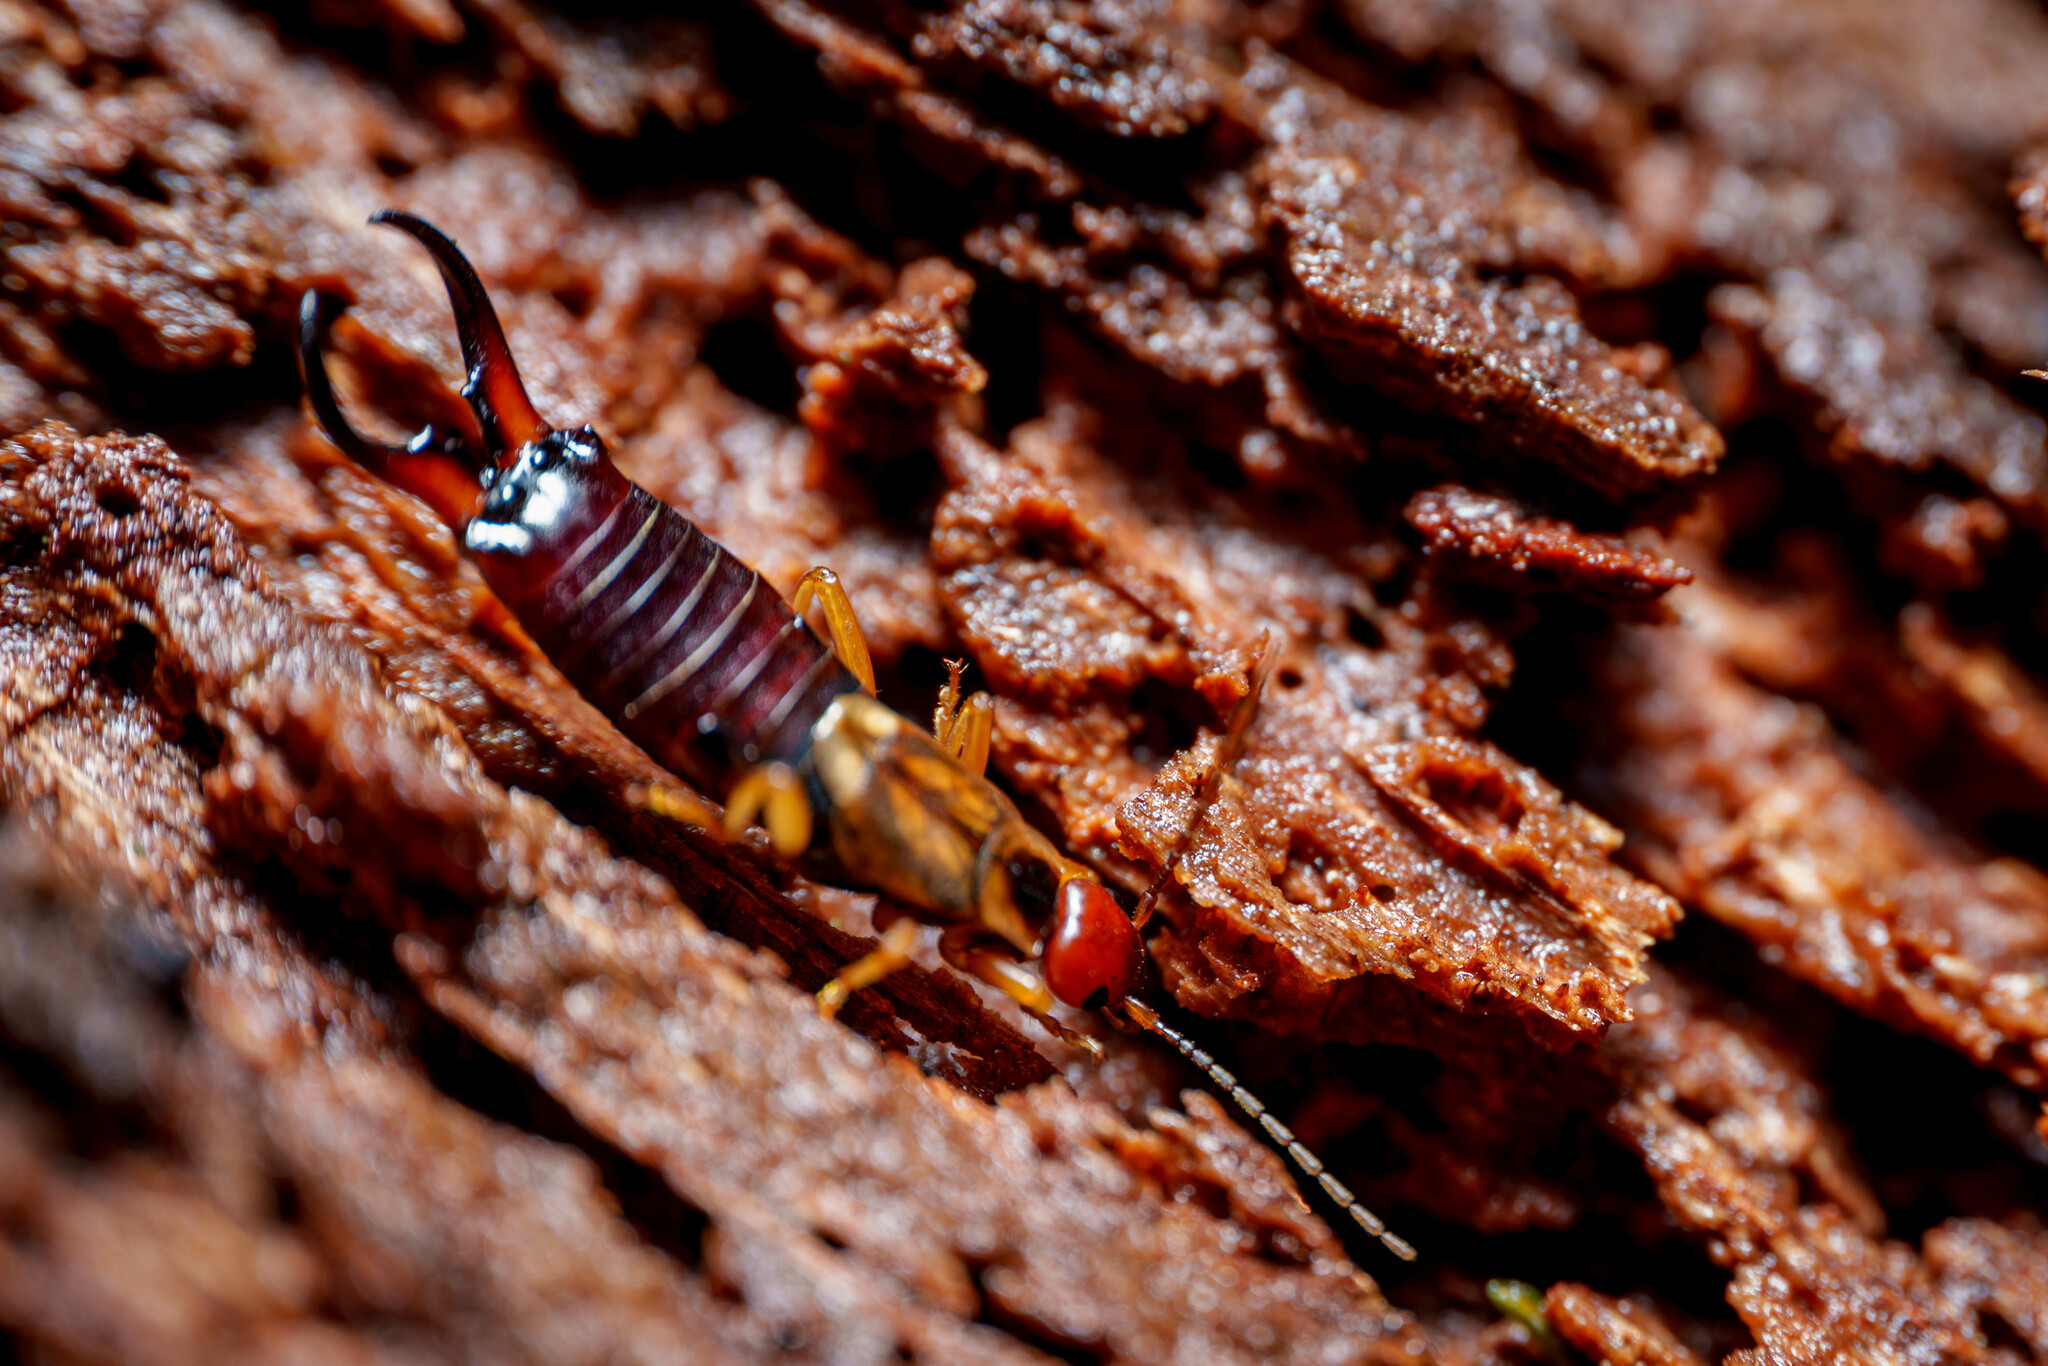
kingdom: Animalia
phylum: Arthropoda
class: Insecta
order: Dermaptera
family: Forficulidae
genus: Forficula
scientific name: Forficula dentata
